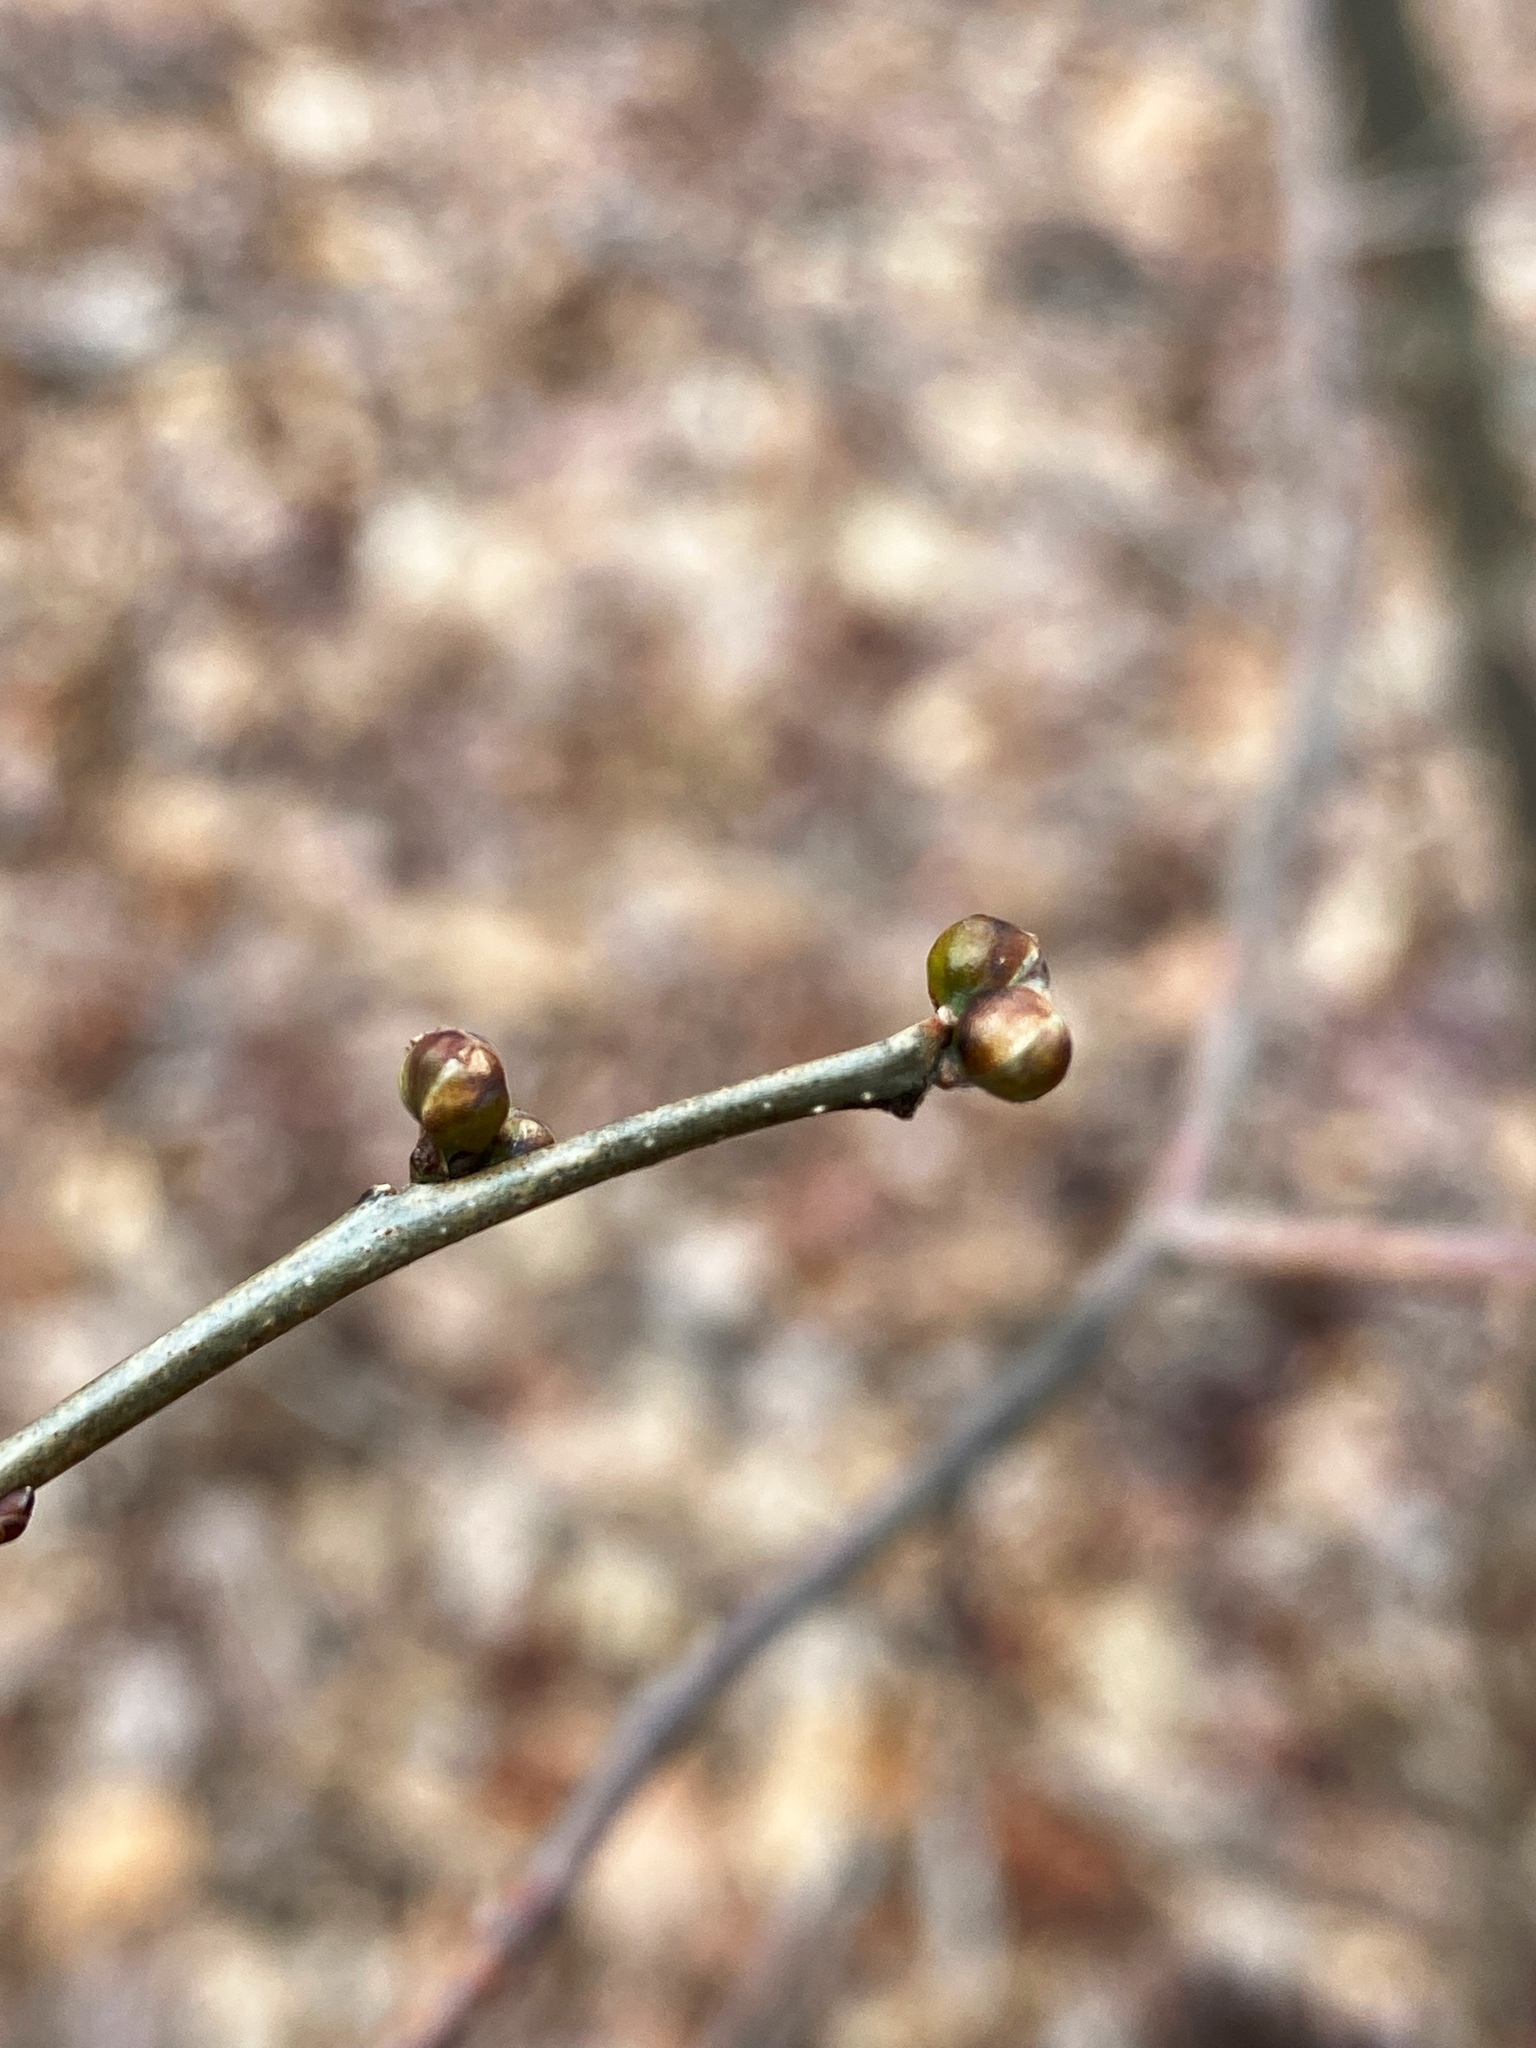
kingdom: Plantae
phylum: Tracheophyta
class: Magnoliopsida
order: Laurales
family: Lauraceae
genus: Lindera
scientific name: Lindera benzoin
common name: Spicebush
